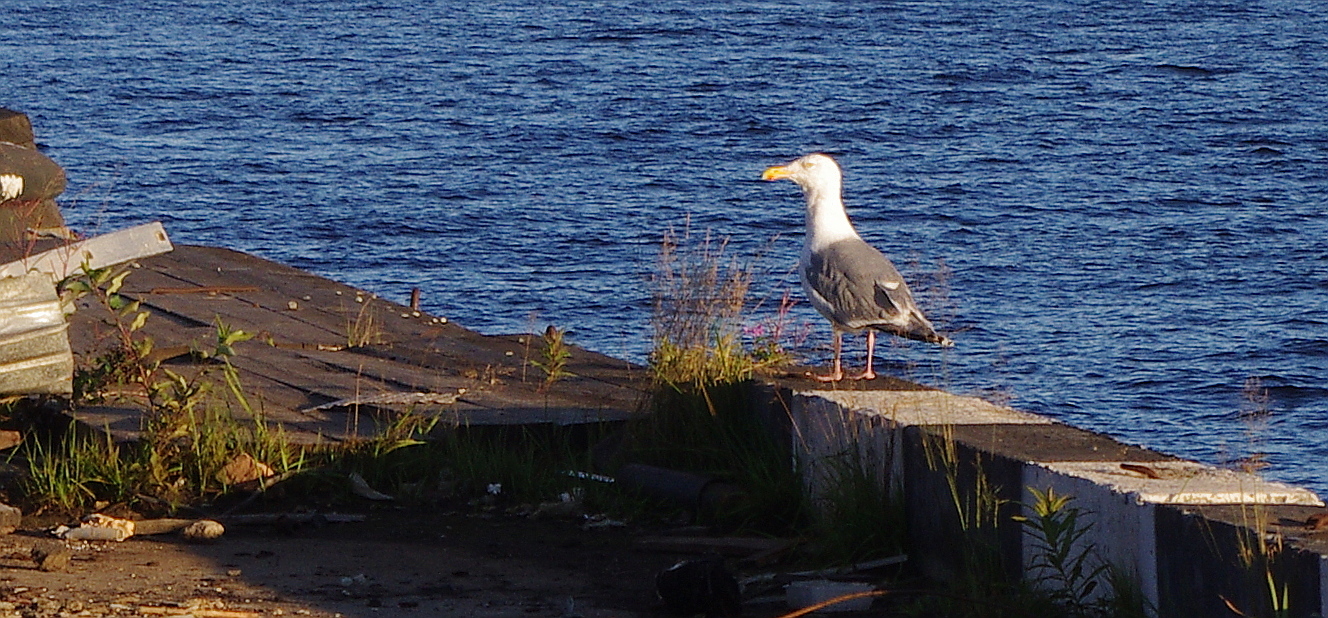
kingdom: Animalia
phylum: Chordata
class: Aves
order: Charadriiformes
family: Laridae
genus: Larus
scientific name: Larus argentatus
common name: Herring gull
